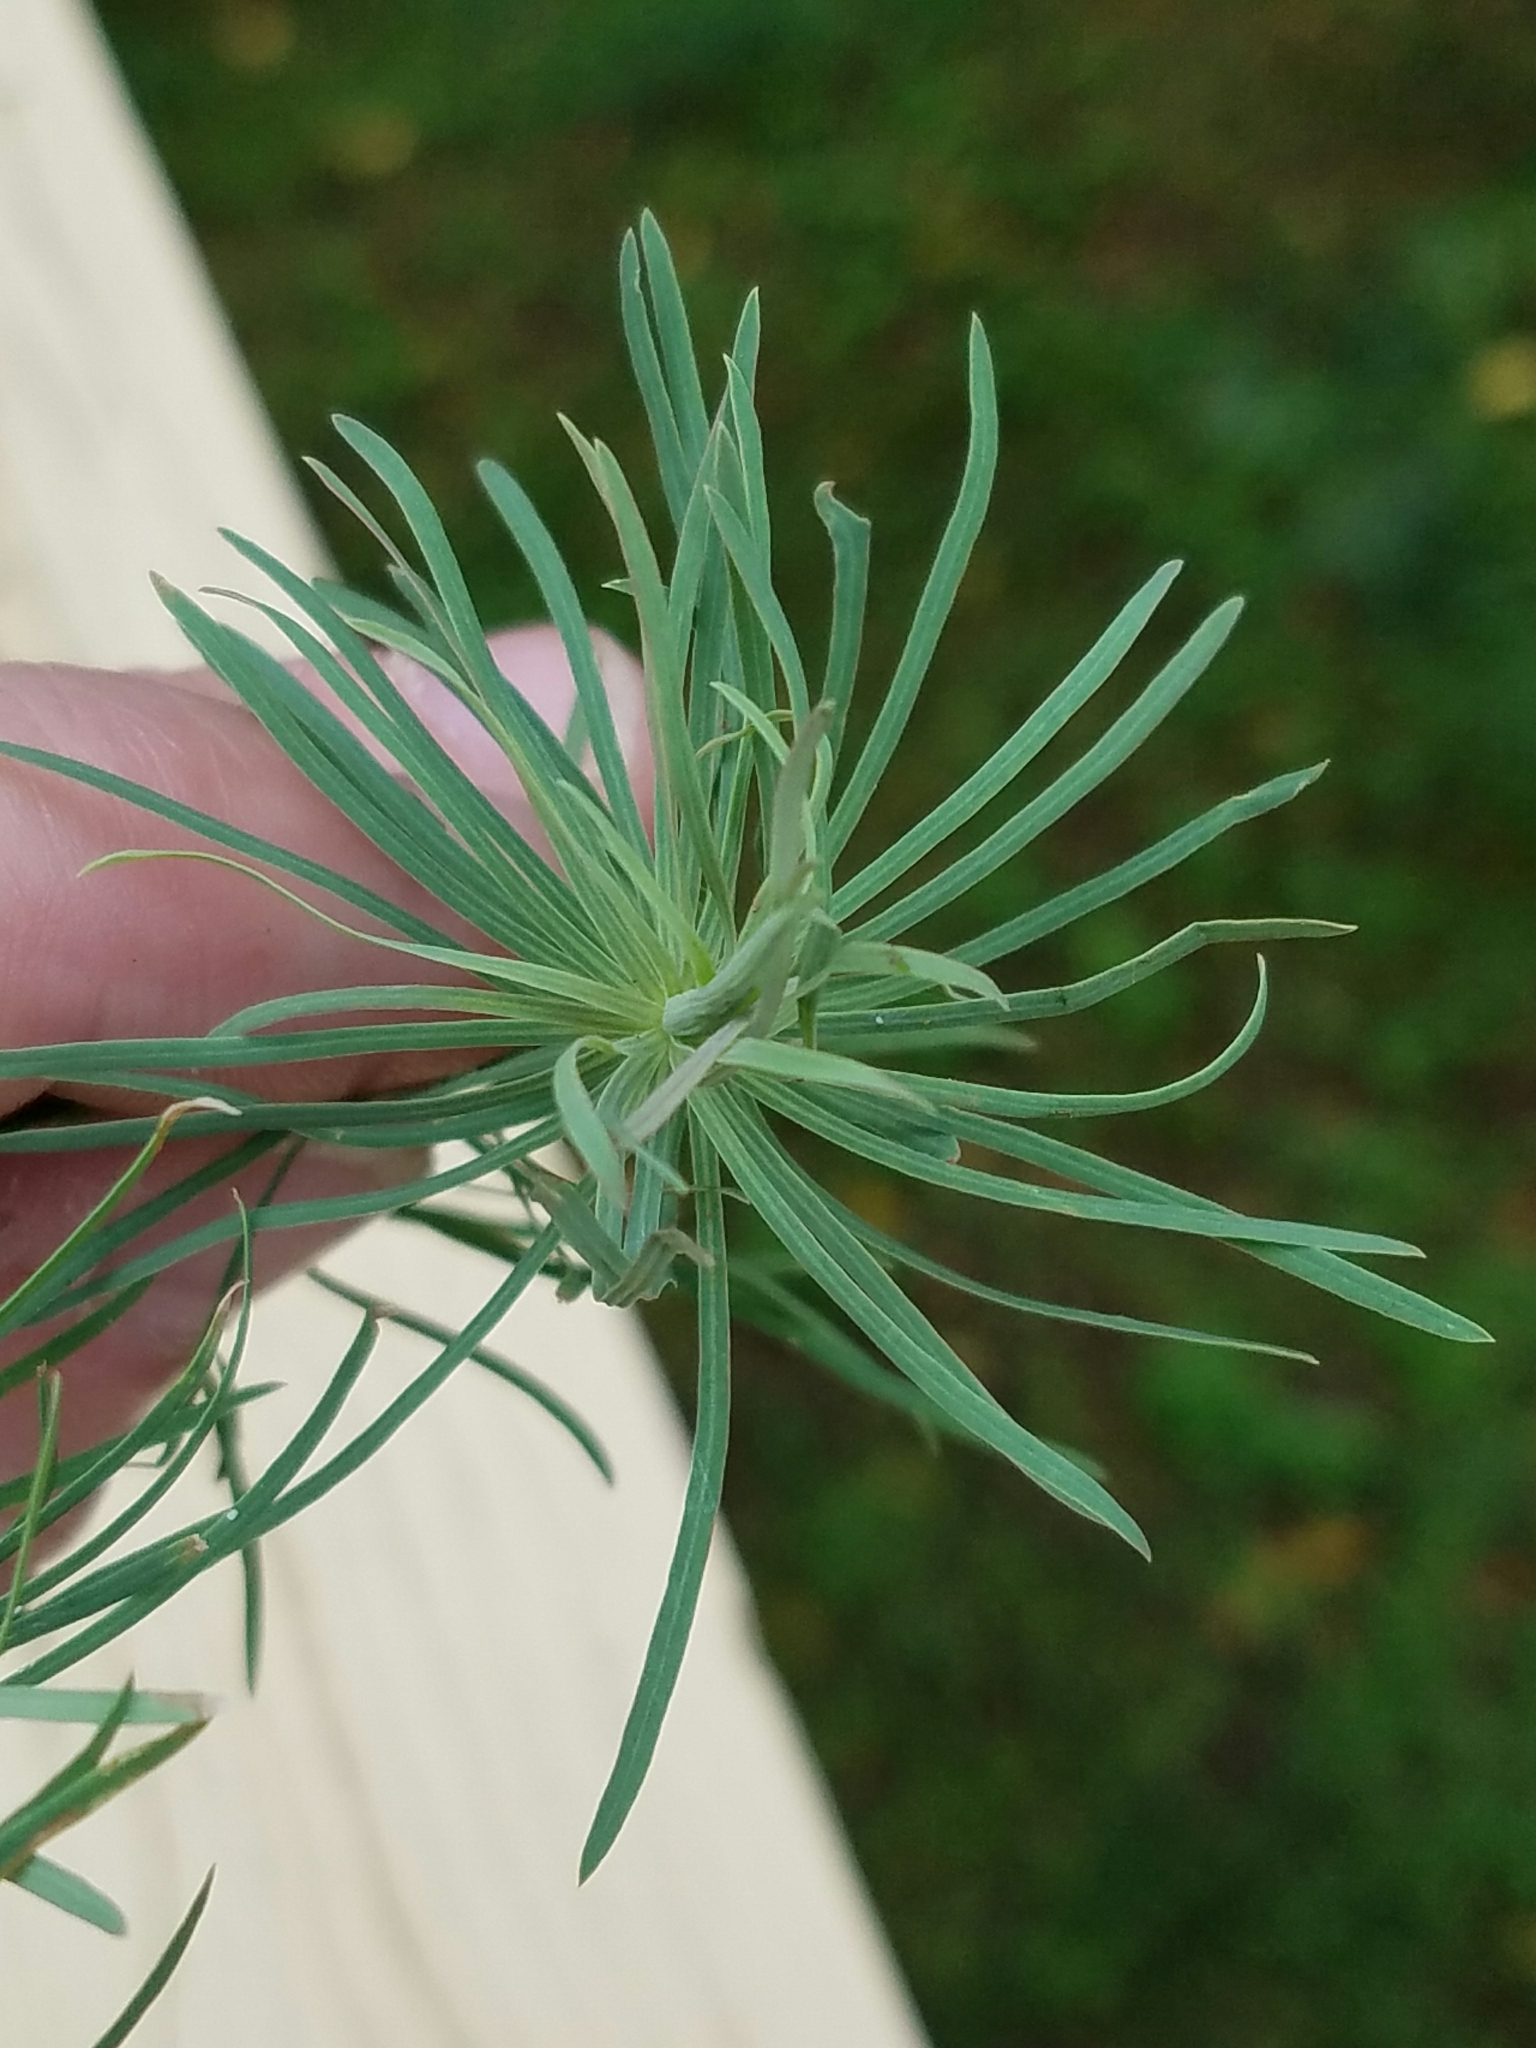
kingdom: Plantae
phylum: Tracheophyta
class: Magnoliopsida
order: Malpighiales
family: Euphorbiaceae
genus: Euphorbia
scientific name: Euphorbia cyparissias
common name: Cypress spurge
